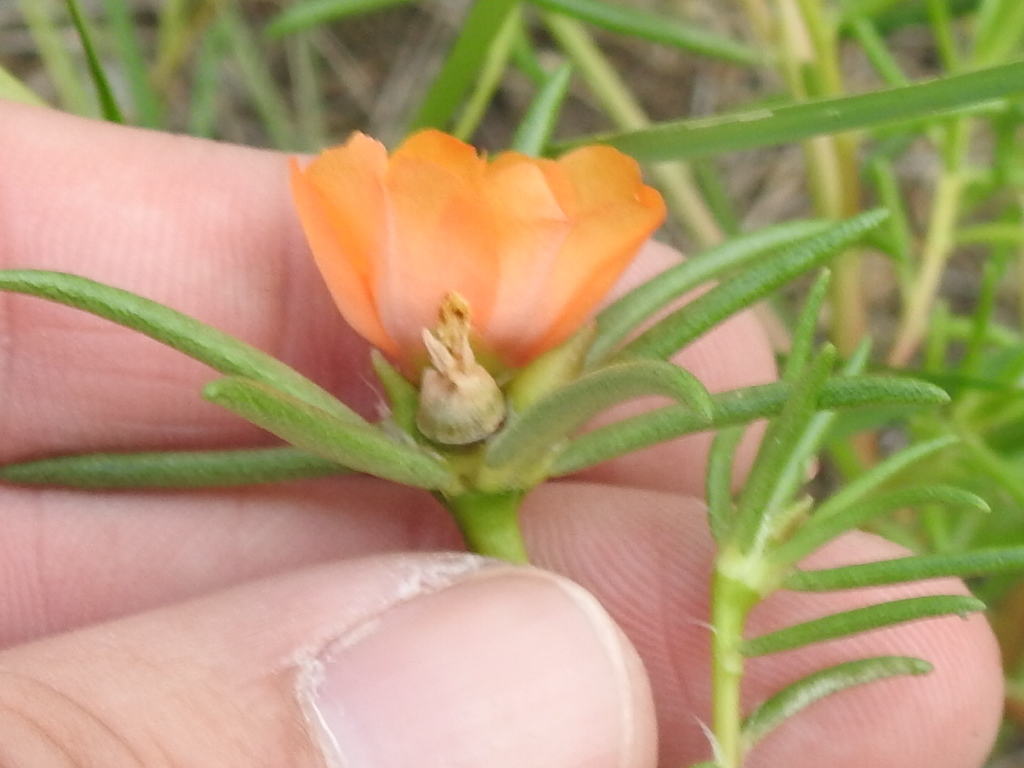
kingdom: Plantae
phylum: Tracheophyta
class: Magnoliopsida
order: Caryophyllales
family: Portulacaceae
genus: Portulaca
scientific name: Portulaca suffrutescens
